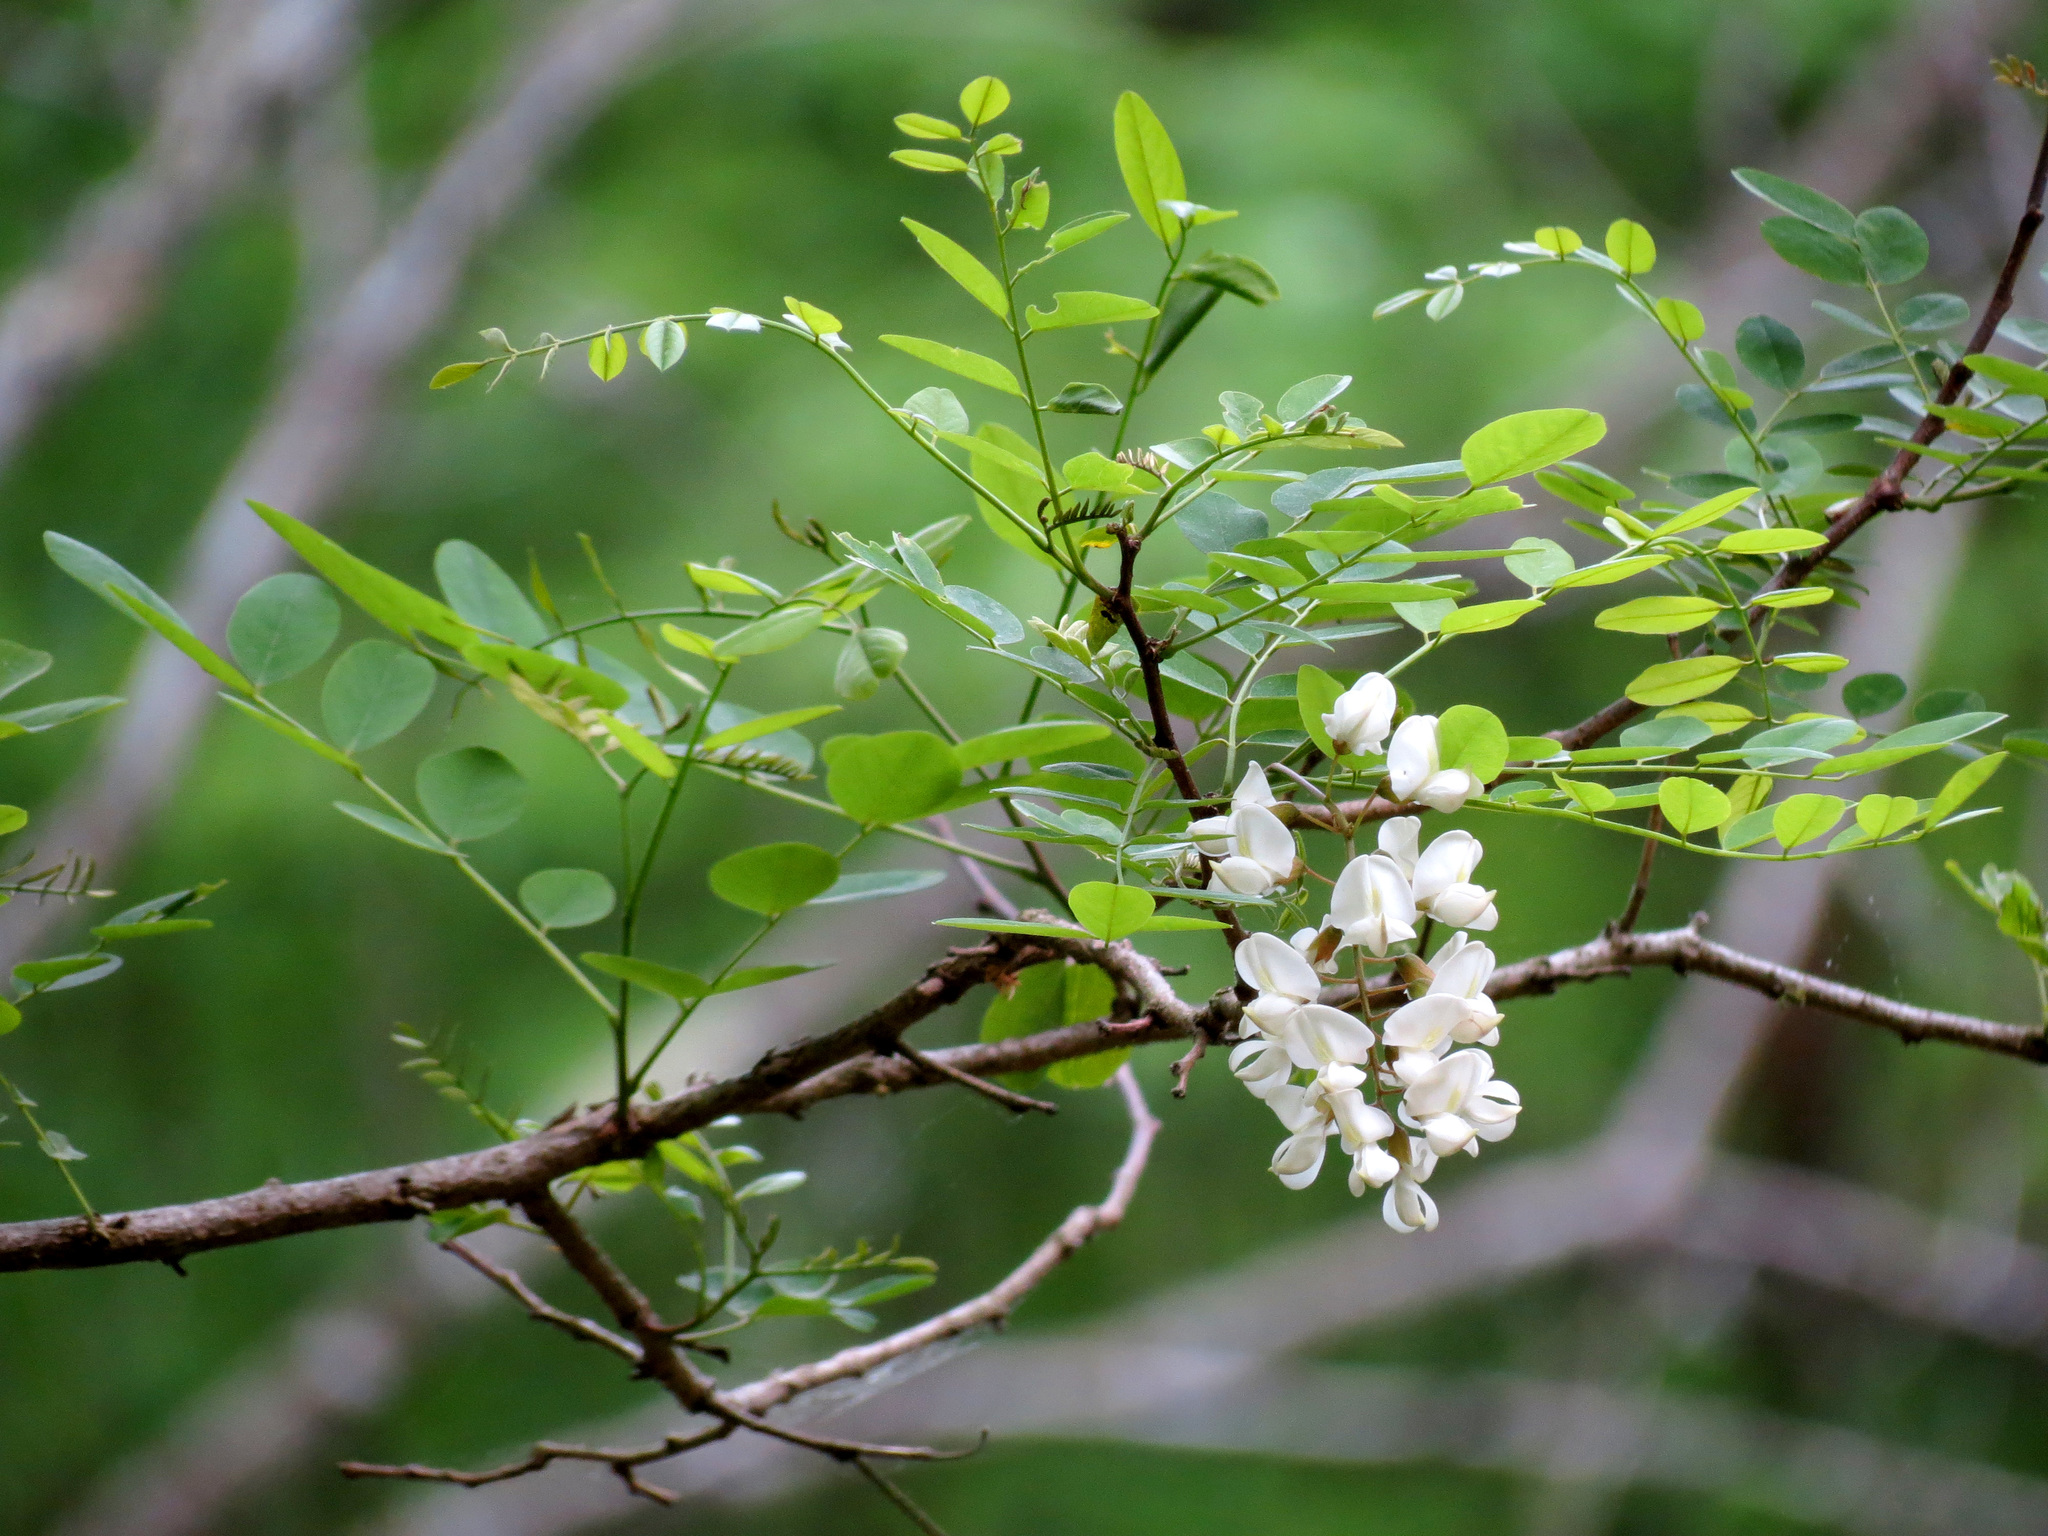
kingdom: Plantae
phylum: Tracheophyta
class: Magnoliopsida
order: Fabales
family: Fabaceae
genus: Robinia
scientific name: Robinia pseudoacacia
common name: Black locust
